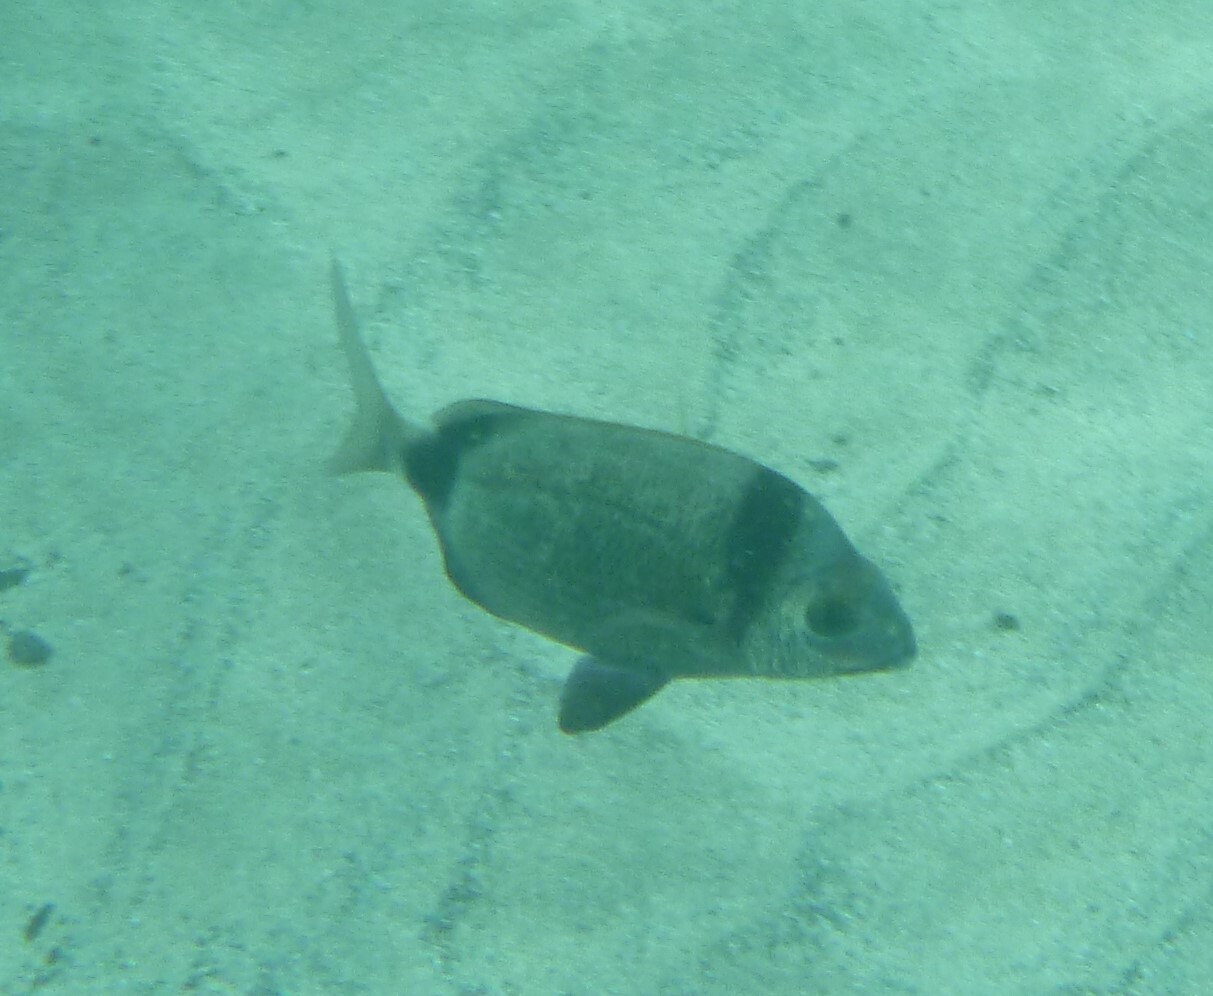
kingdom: Animalia
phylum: Chordata
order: Perciformes
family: Sparidae
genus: Diplodus
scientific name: Diplodus vulgaris
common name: Common two-banded seabream
